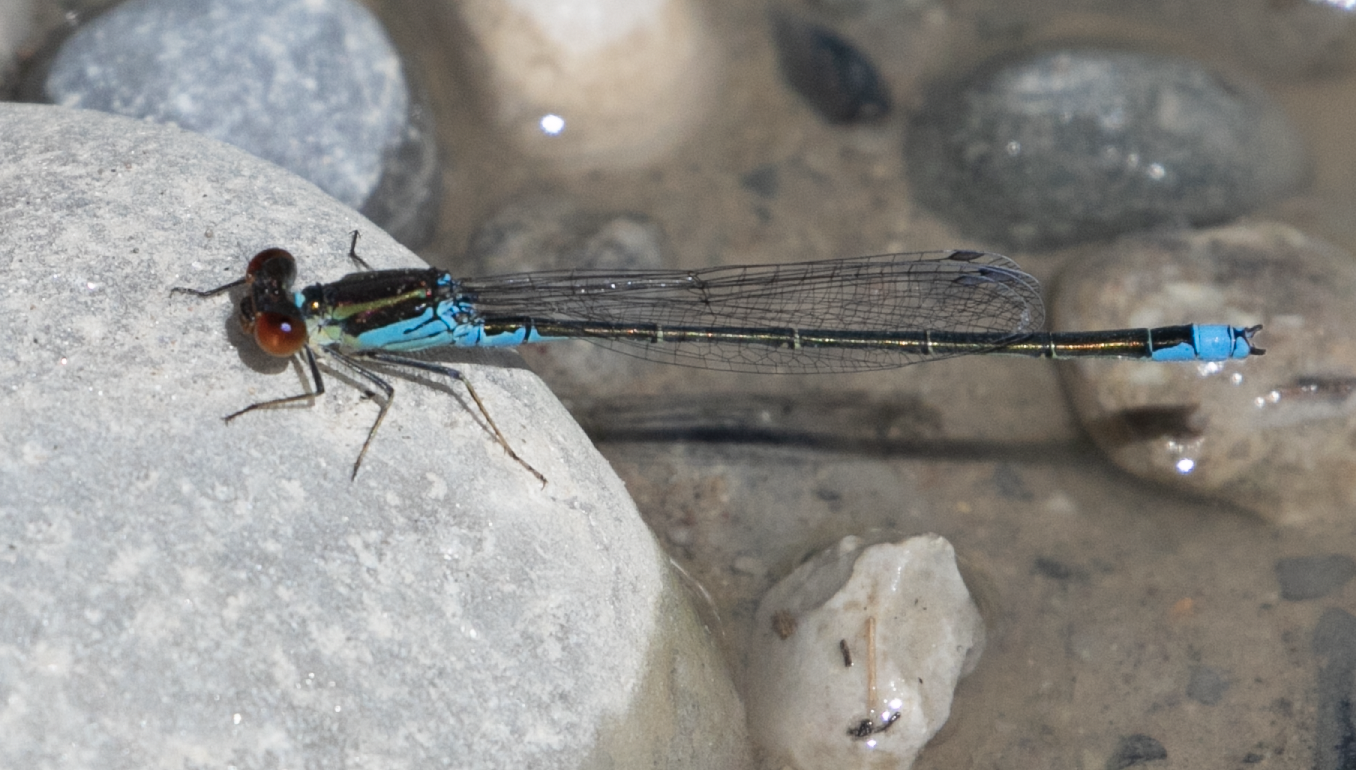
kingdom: Animalia
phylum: Arthropoda
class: Insecta
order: Odonata
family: Coenagrionidae
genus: Erythromma
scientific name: Erythromma viridulum
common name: Small red-eyed damselfly
